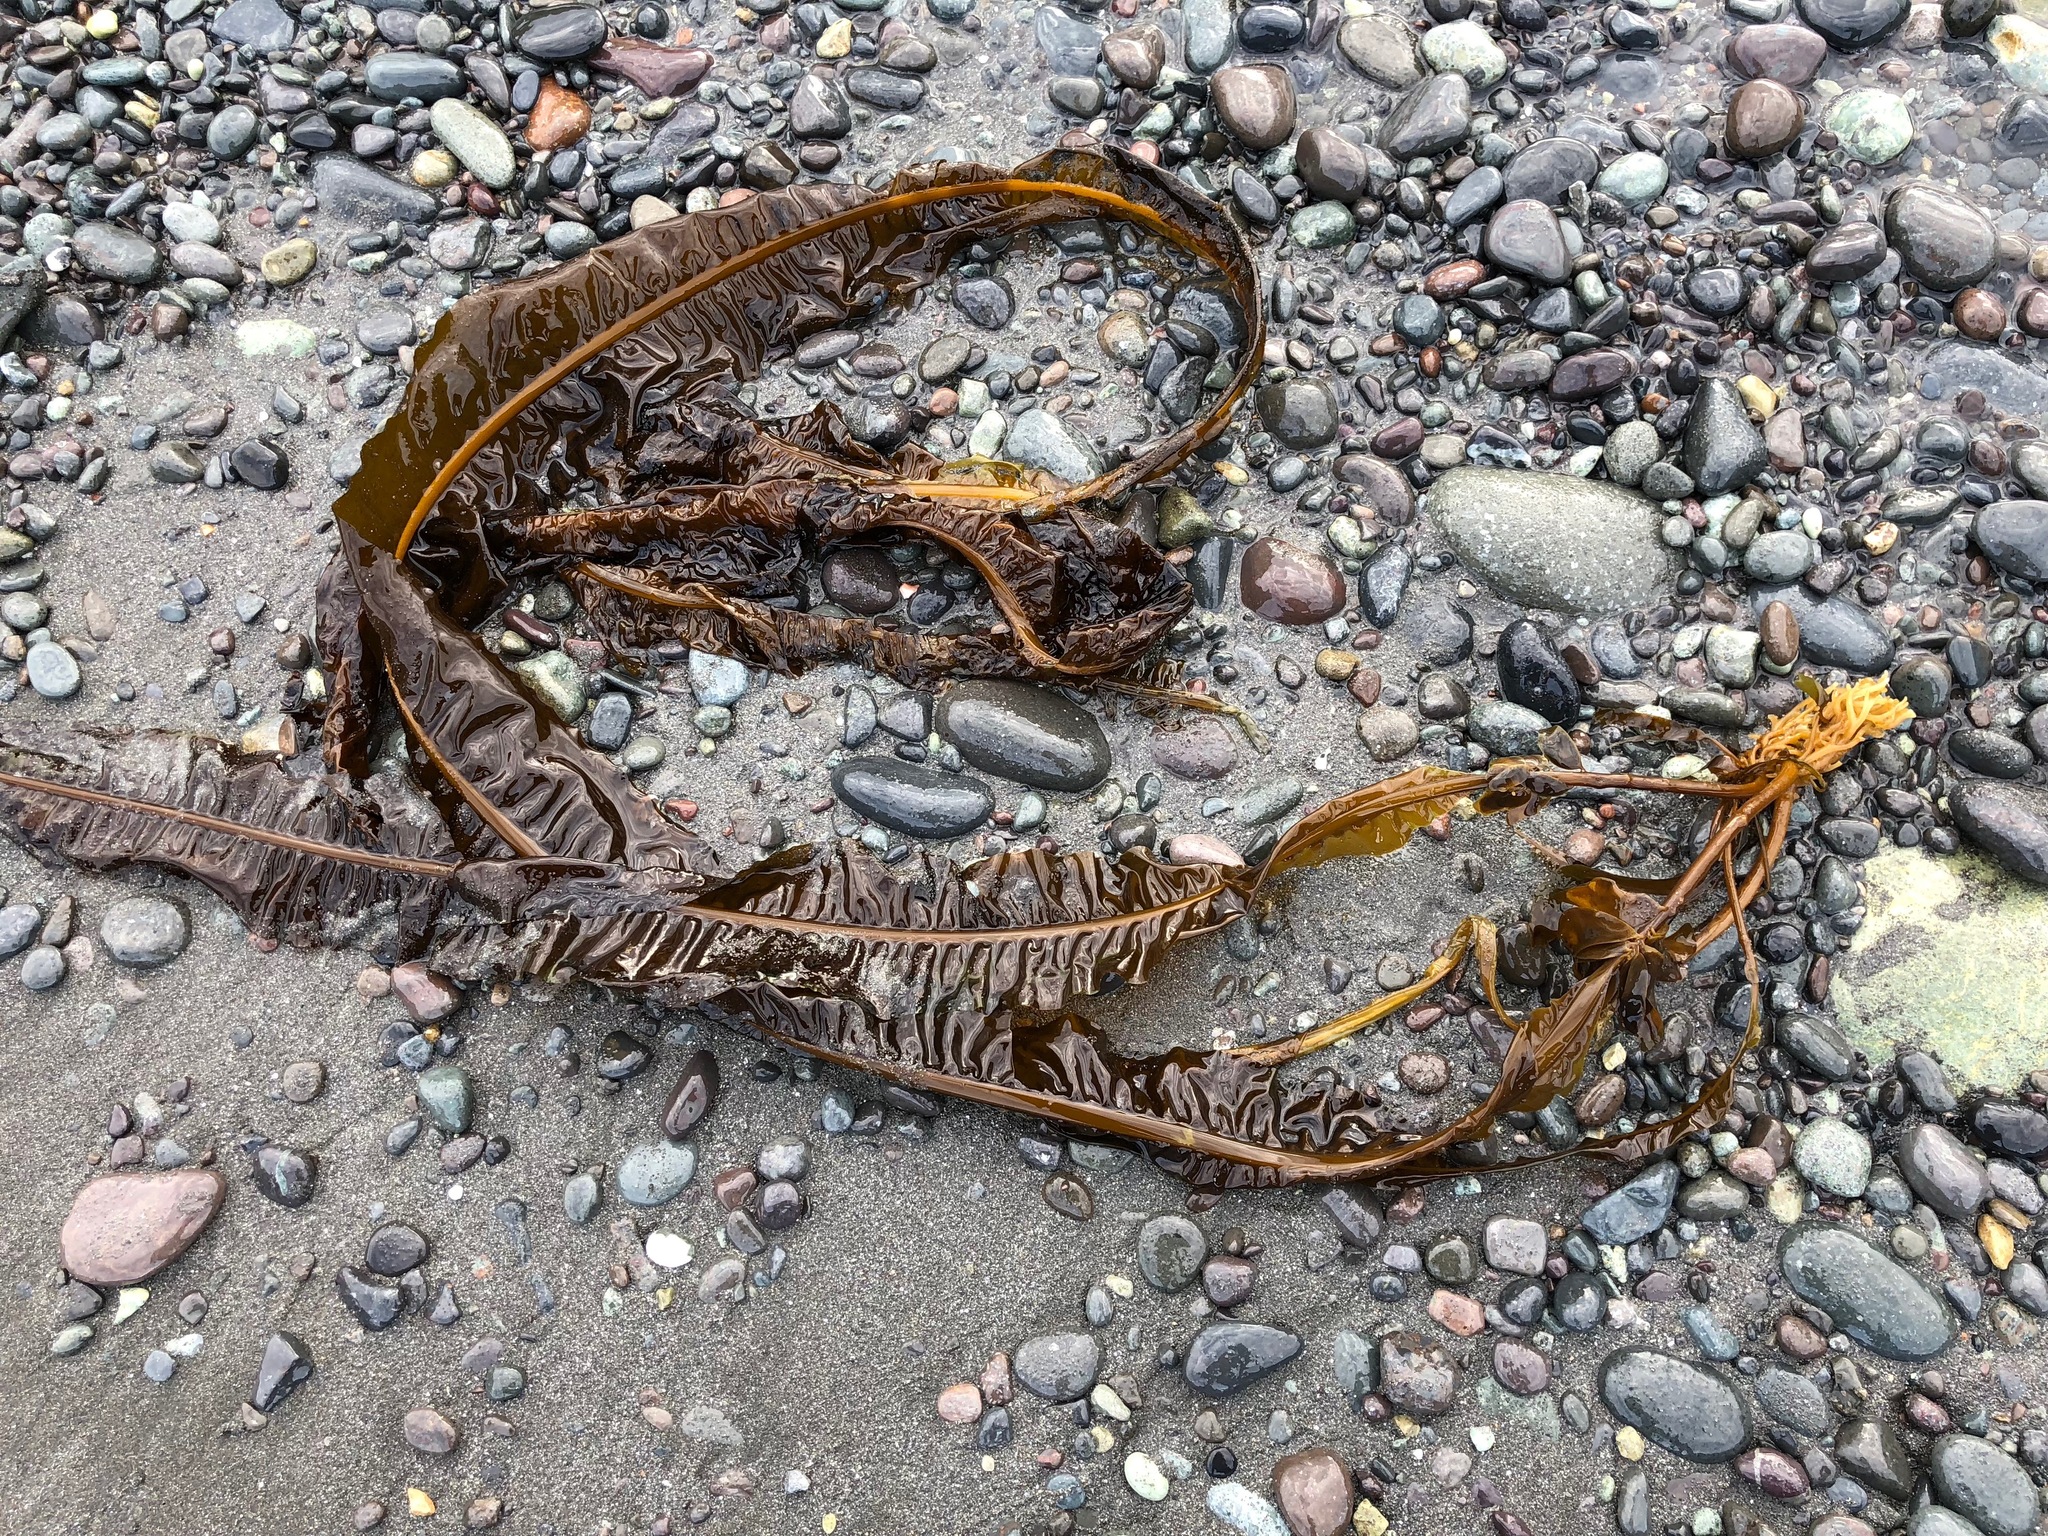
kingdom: Chromista
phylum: Ochrophyta
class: Phaeophyceae
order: Laminariales
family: Alariaceae
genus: Alaria
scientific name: Alaria marginata
